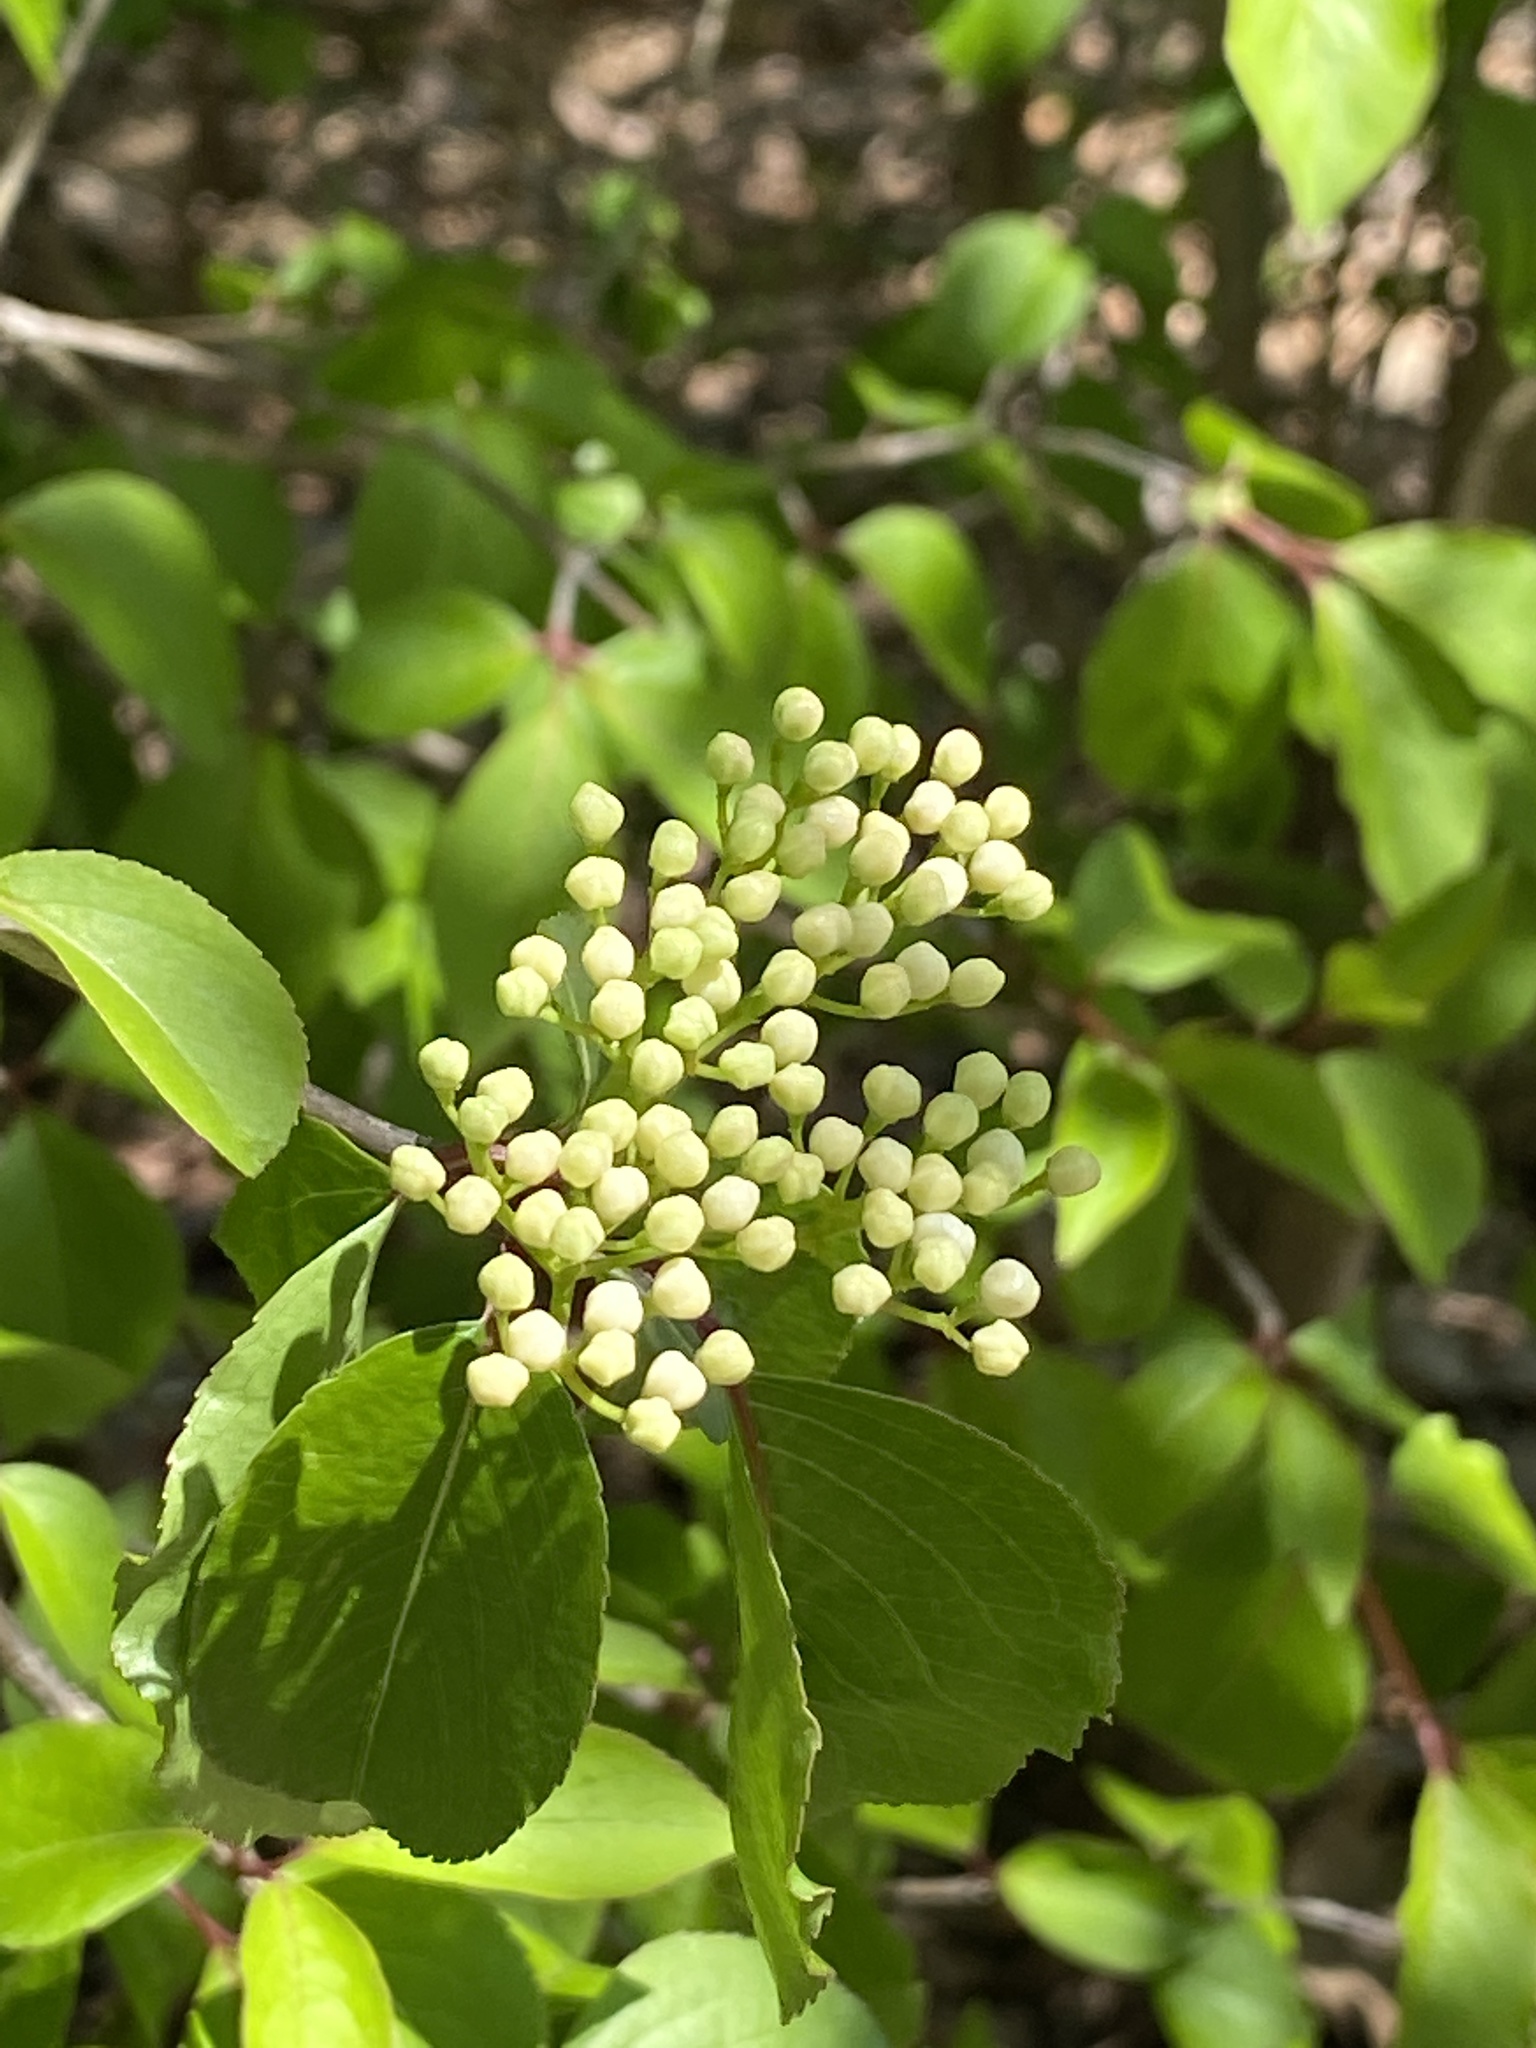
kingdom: Plantae
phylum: Tracheophyta
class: Magnoliopsida
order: Dipsacales
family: Viburnaceae
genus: Viburnum
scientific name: Viburnum prunifolium
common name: Black haw
